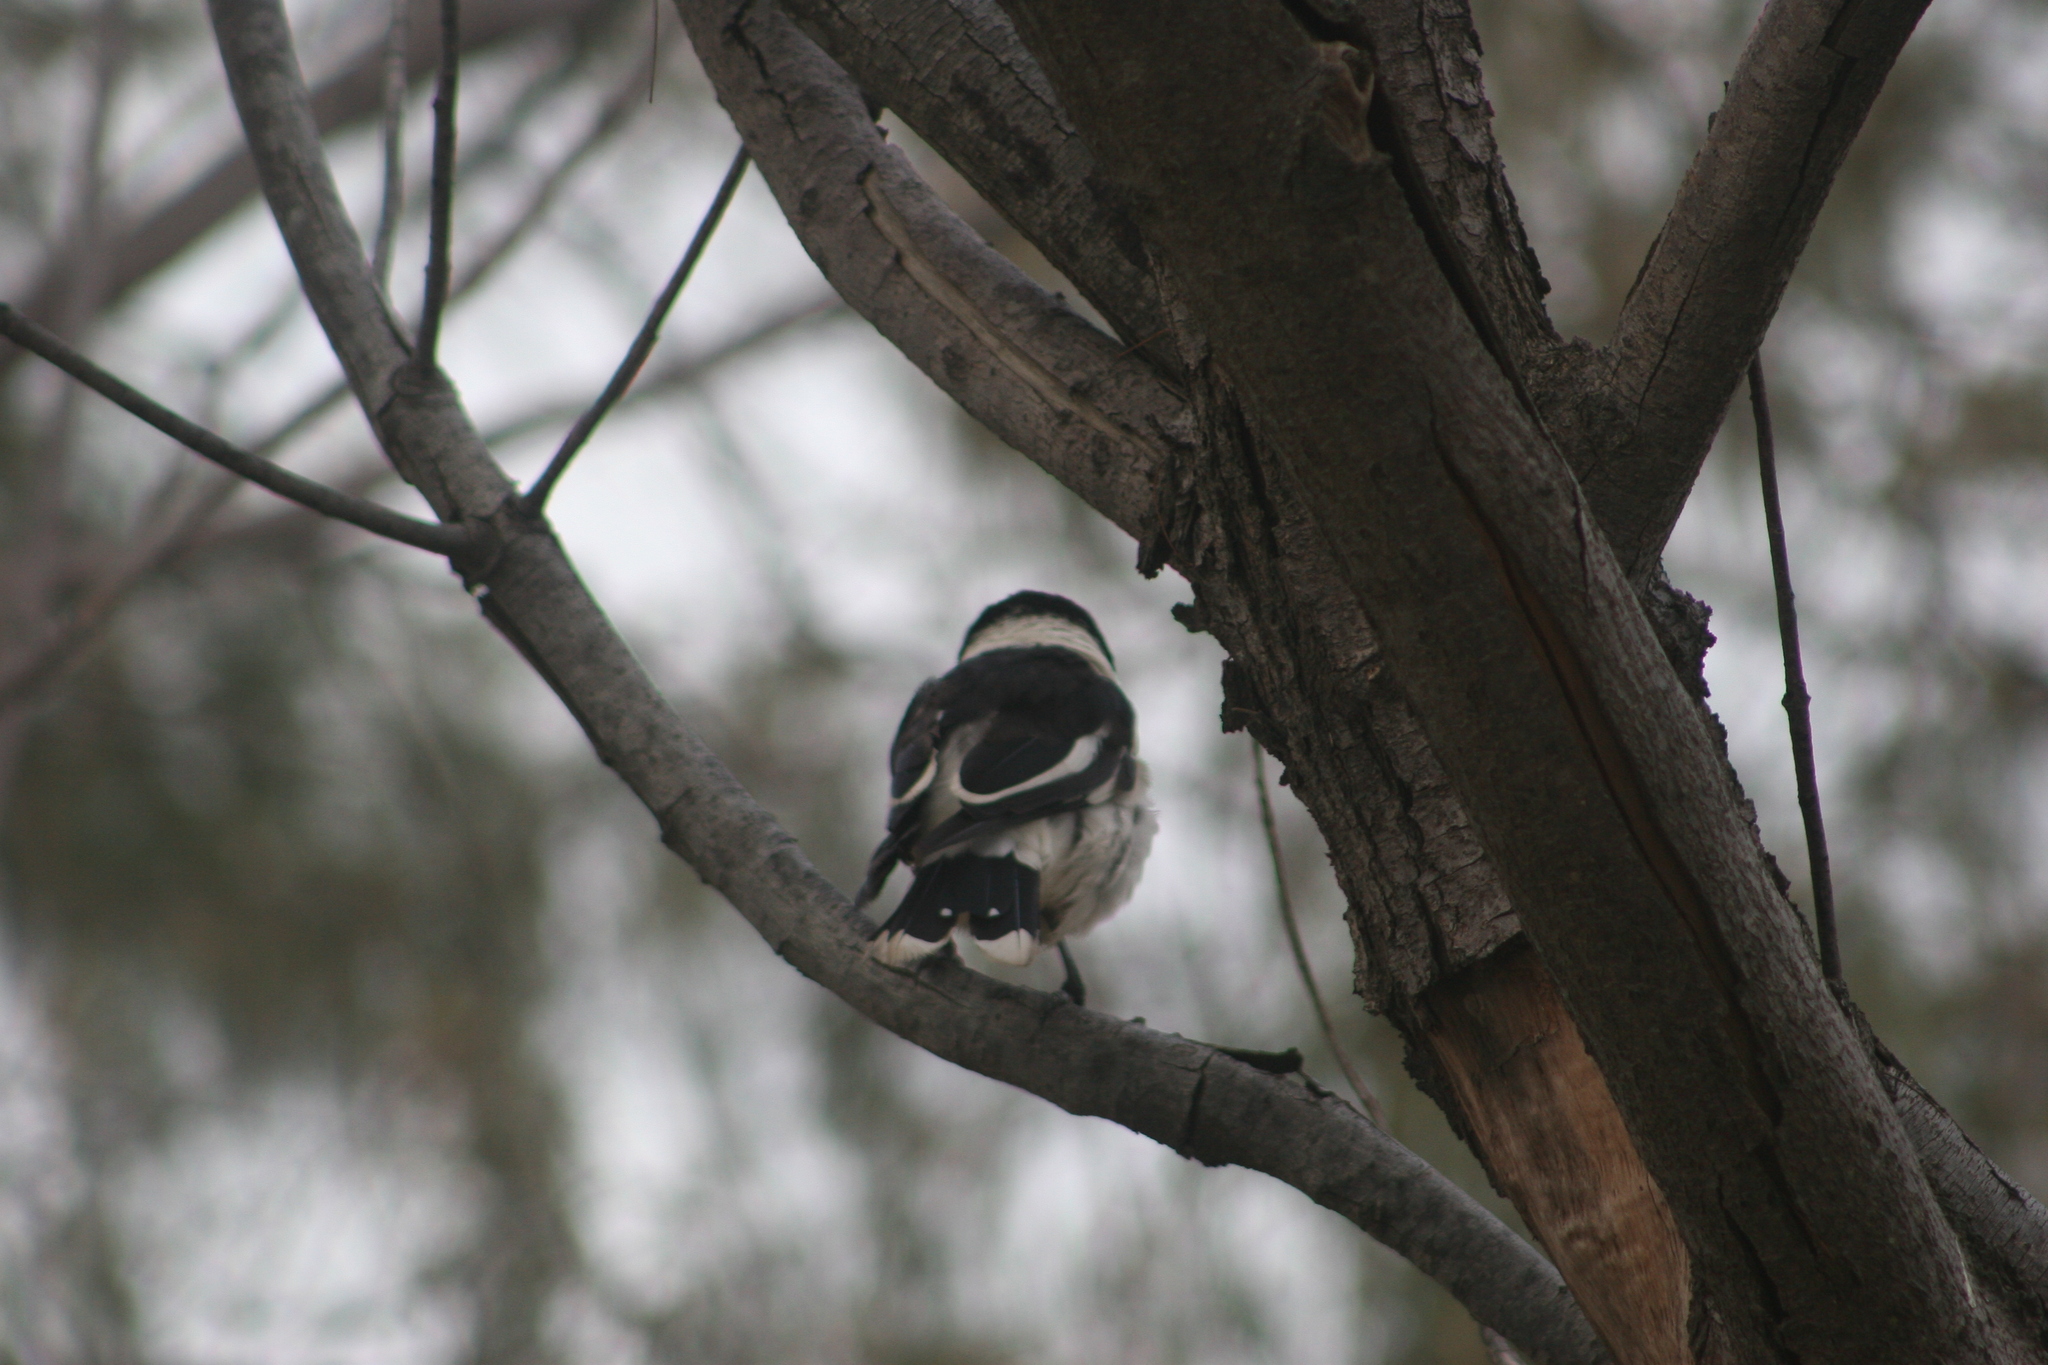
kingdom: Animalia
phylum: Chordata
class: Aves
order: Passeriformes
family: Cracticidae
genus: Cracticus
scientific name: Cracticus nigrogularis
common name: Pied butcherbird
